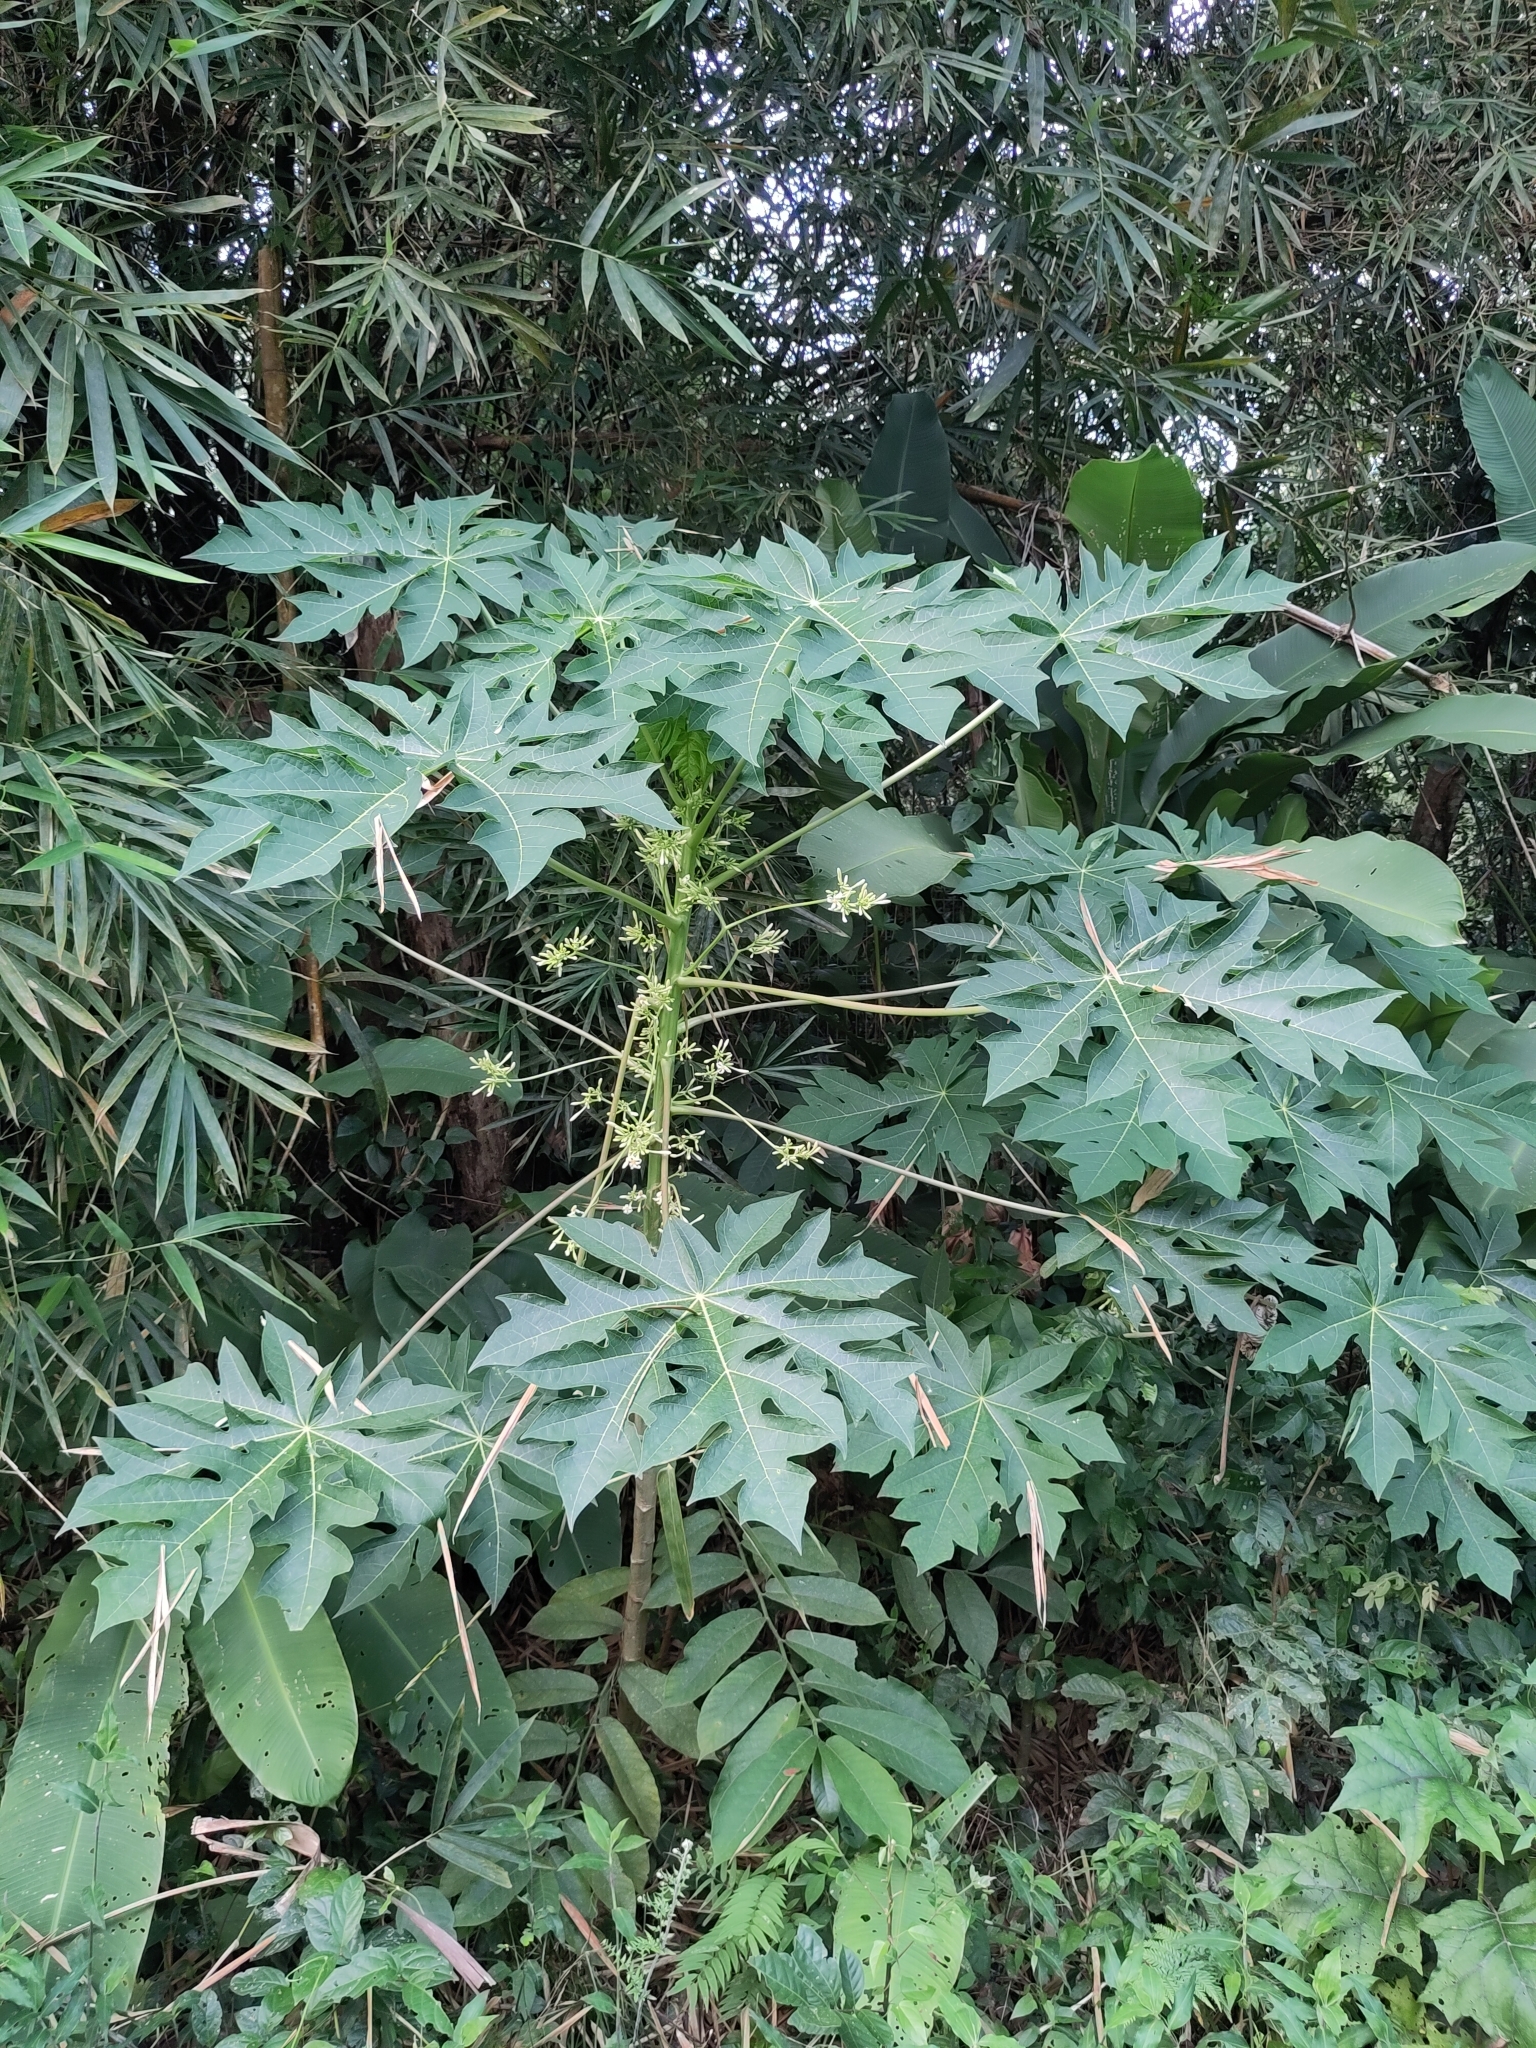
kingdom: Plantae
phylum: Tracheophyta
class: Magnoliopsida
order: Brassicales
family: Caricaceae
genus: Carica
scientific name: Carica papaya
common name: Papaya
